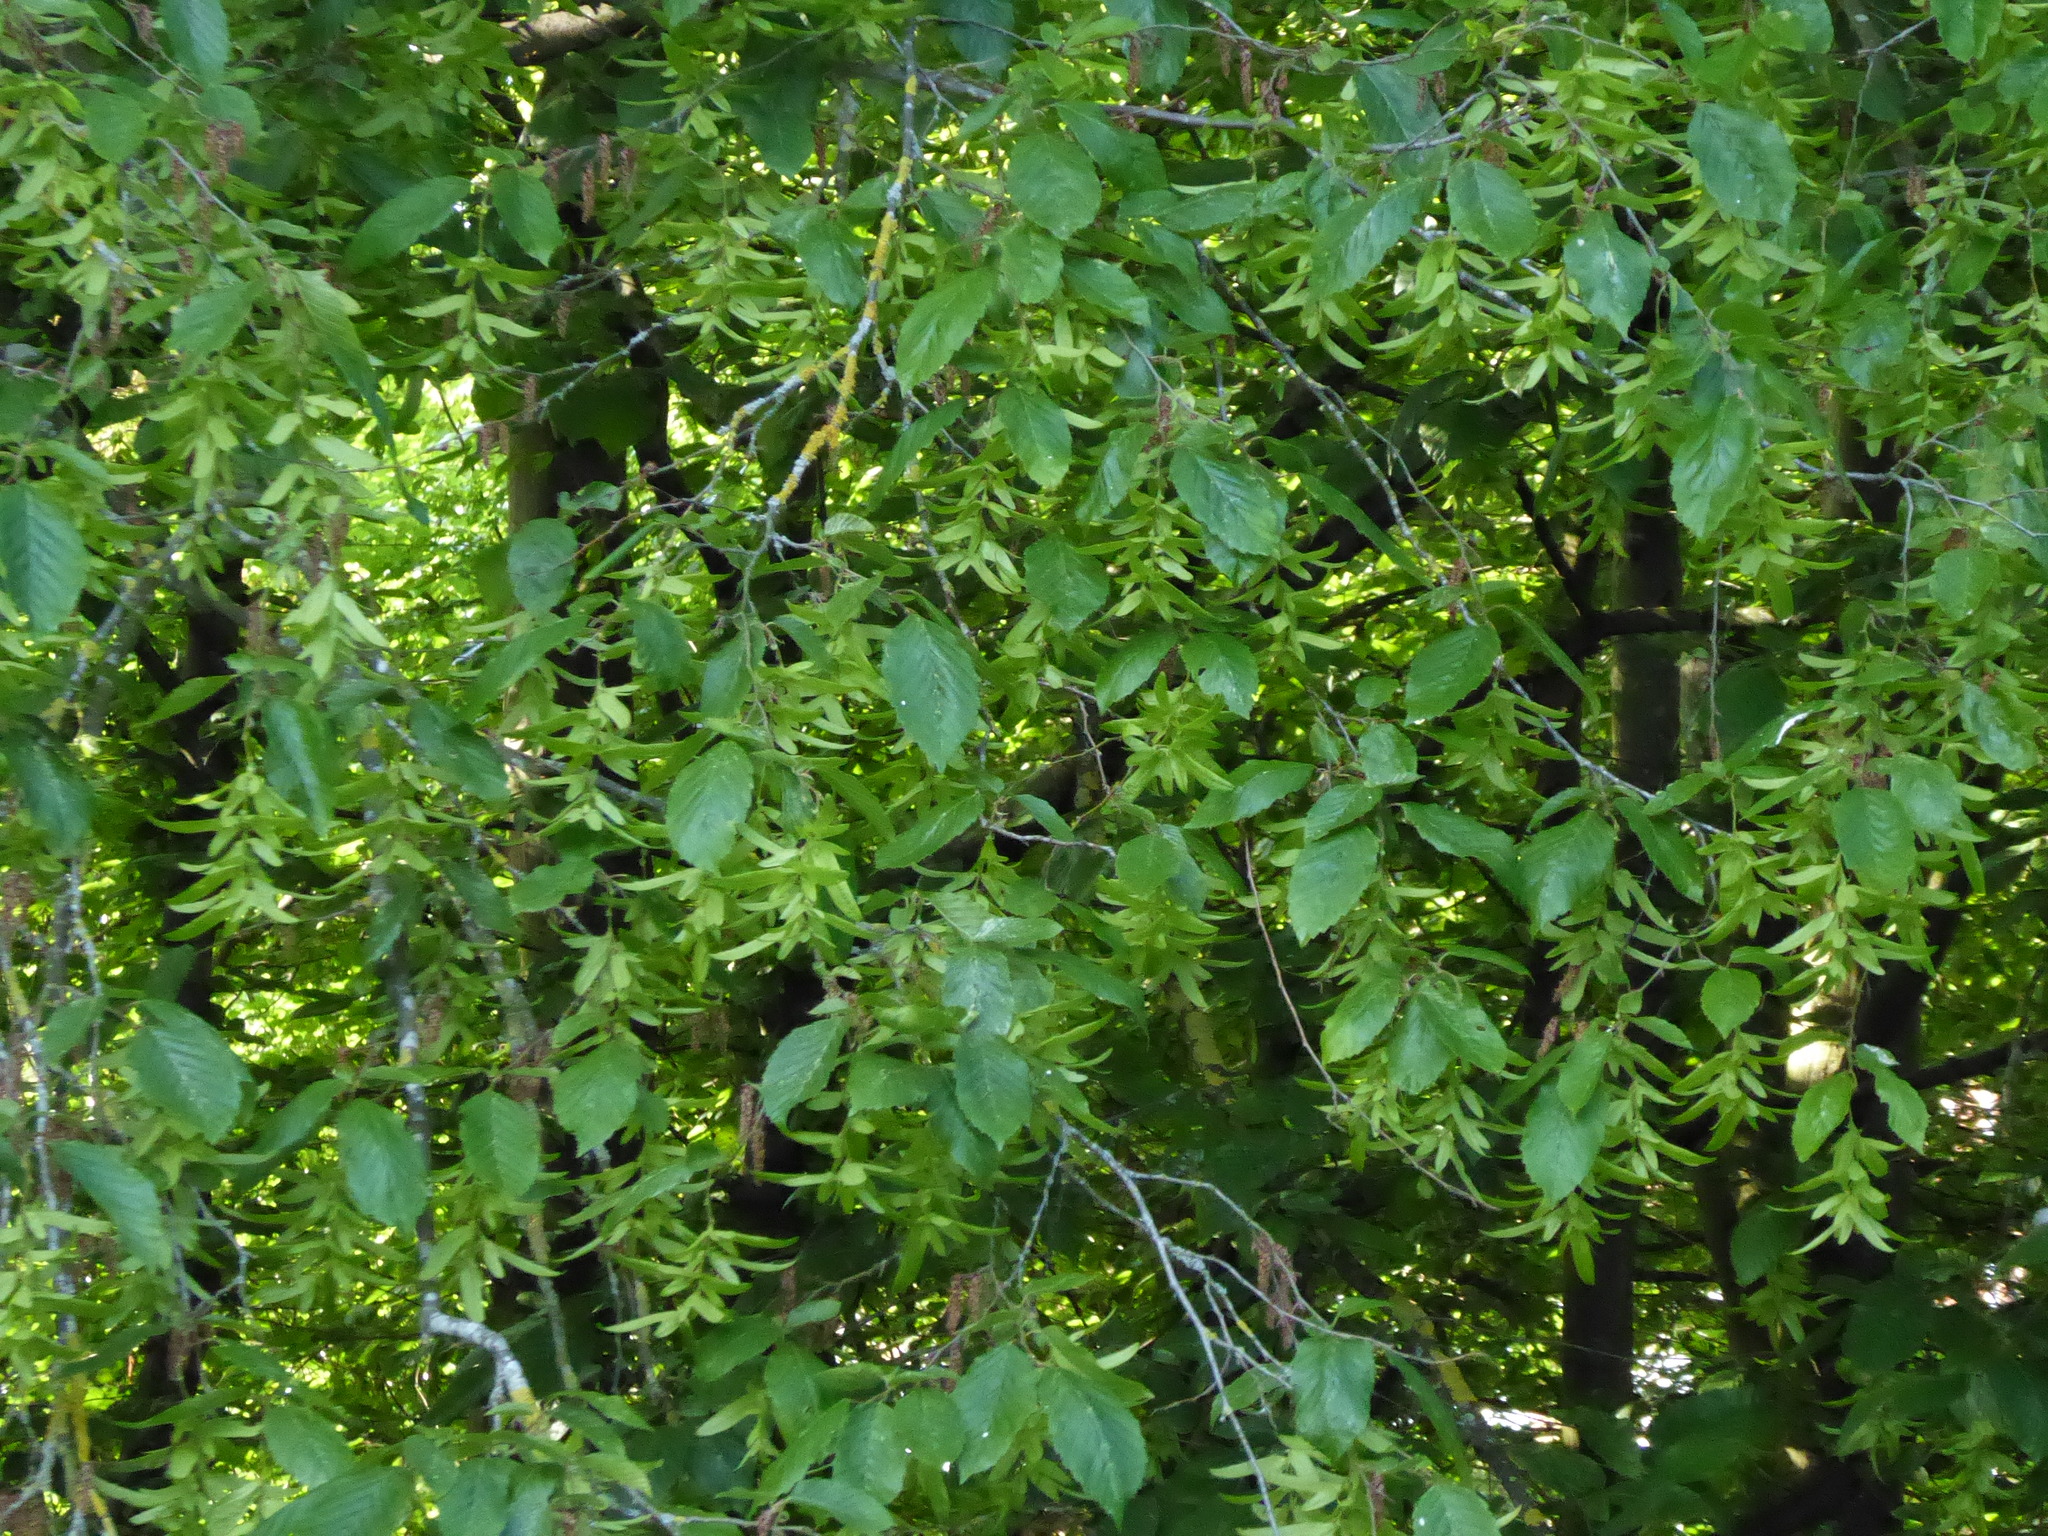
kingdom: Plantae
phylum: Tracheophyta
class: Magnoliopsida
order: Fagales
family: Betulaceae
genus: Carpinus
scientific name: Carpinus betulus
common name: Hornbeam
